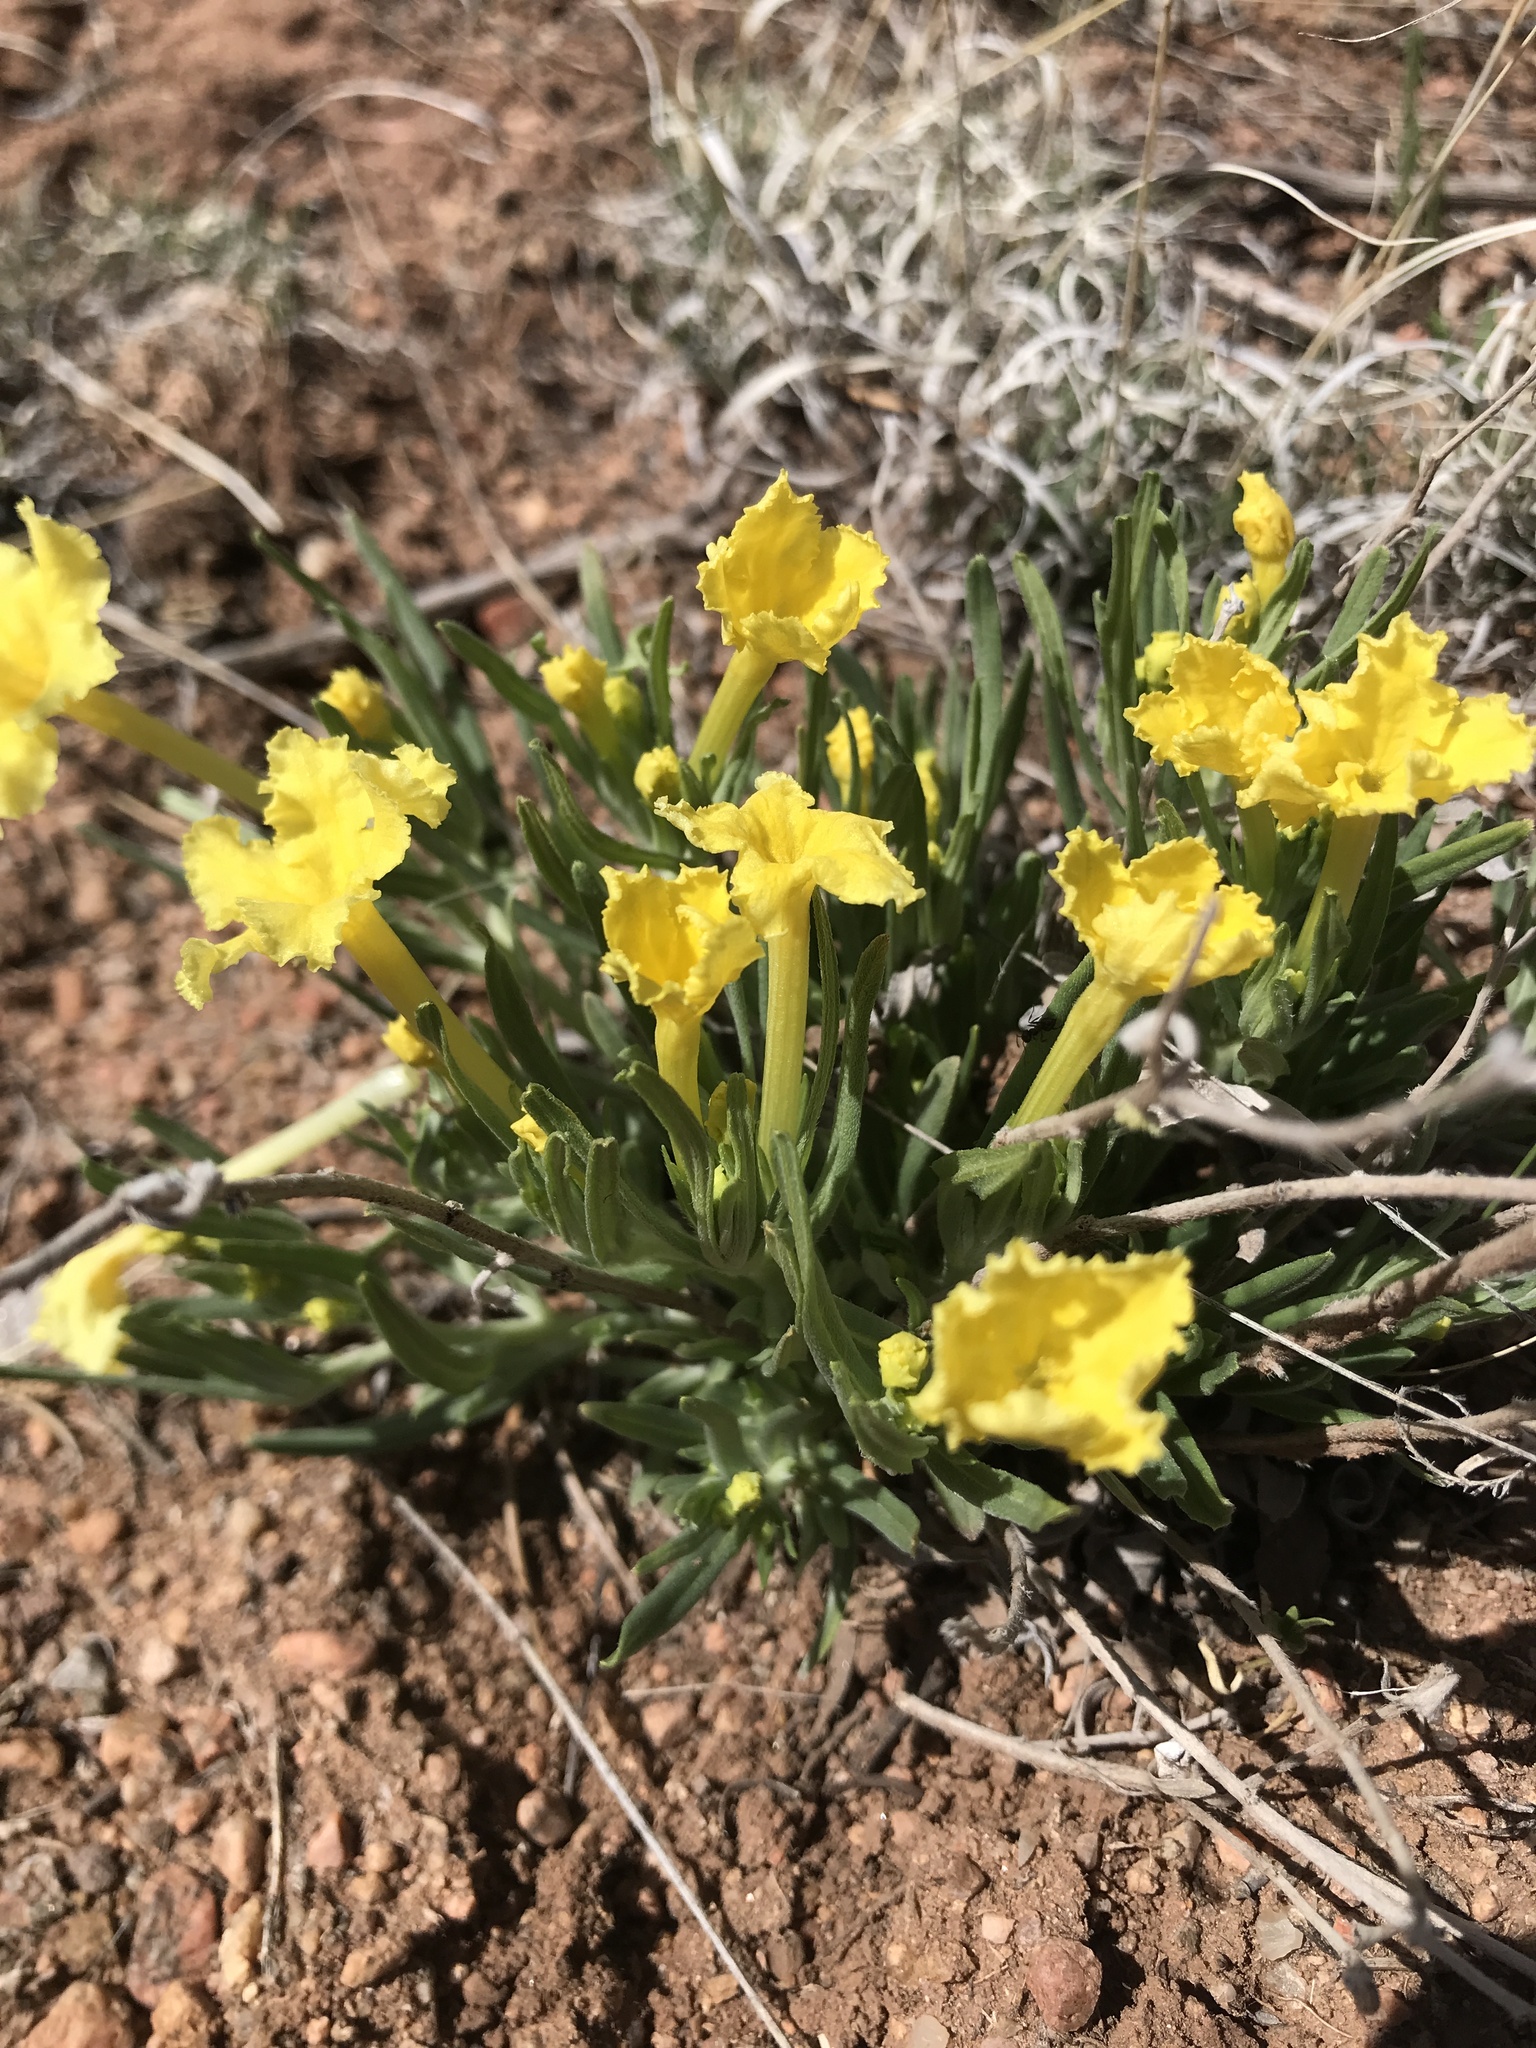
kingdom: Plantae
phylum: Tracheophyta
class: Magnoliopsida
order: Boraginales
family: Boraginaceae
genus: Lithospermum
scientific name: Lithospermum incisum
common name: Fringed gromwell
